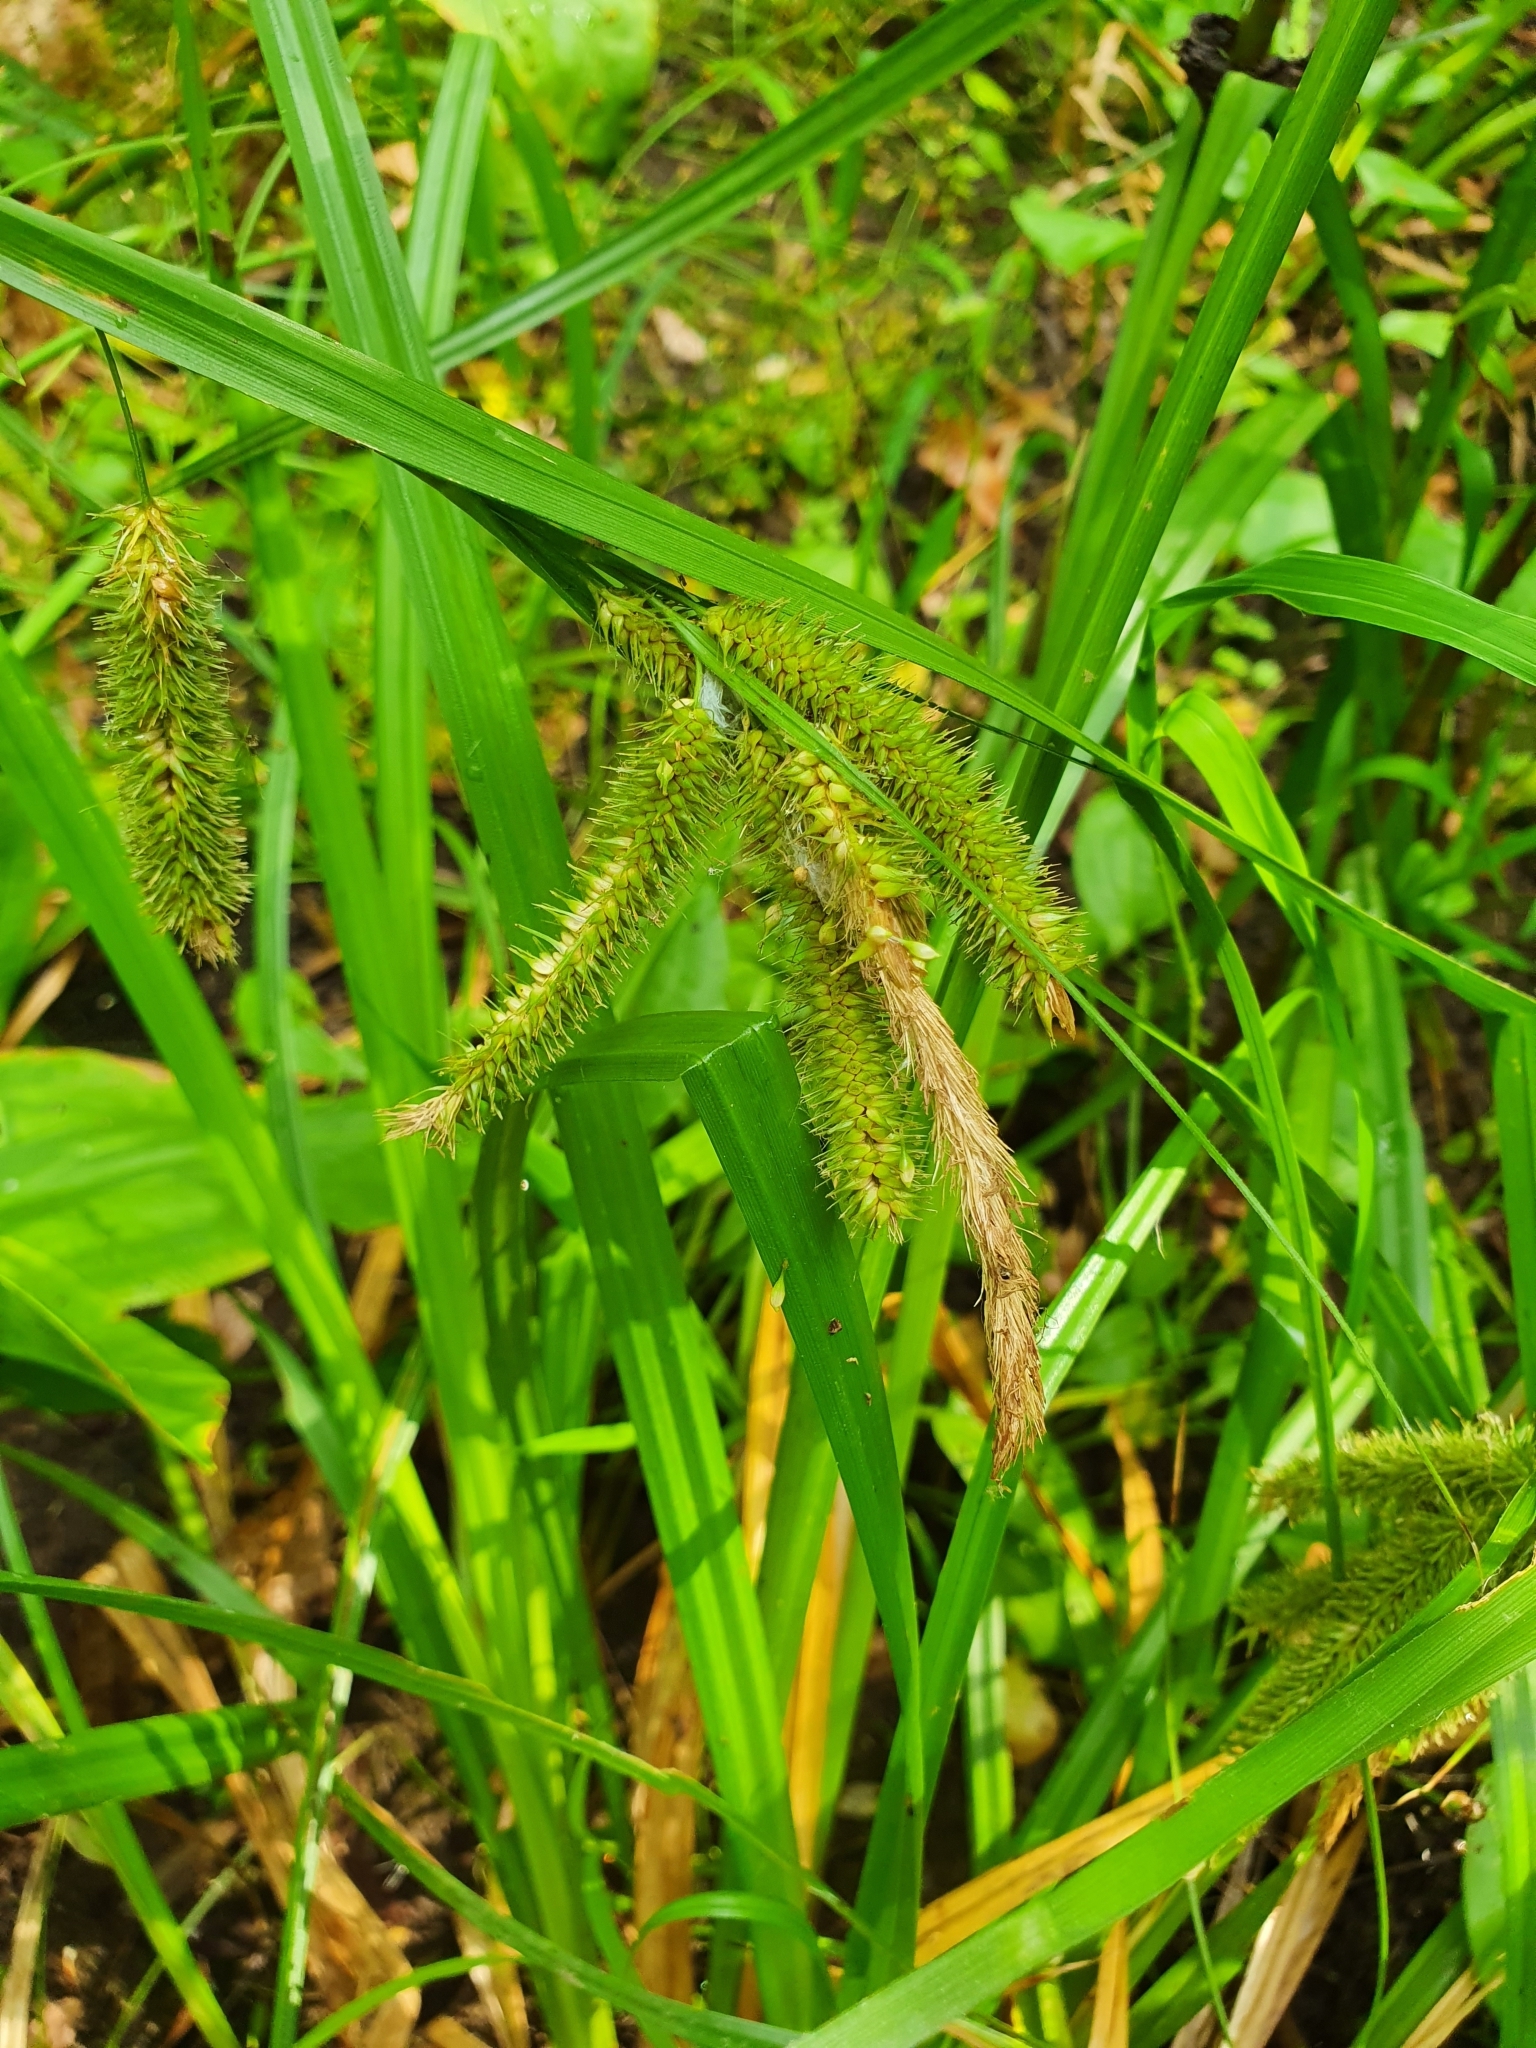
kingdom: Plantae
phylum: Tracheophyta
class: Liliopsida
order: Poales
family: Cyperaceae
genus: Carex
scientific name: Carex pseudocyperus
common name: Cyperus sedge
